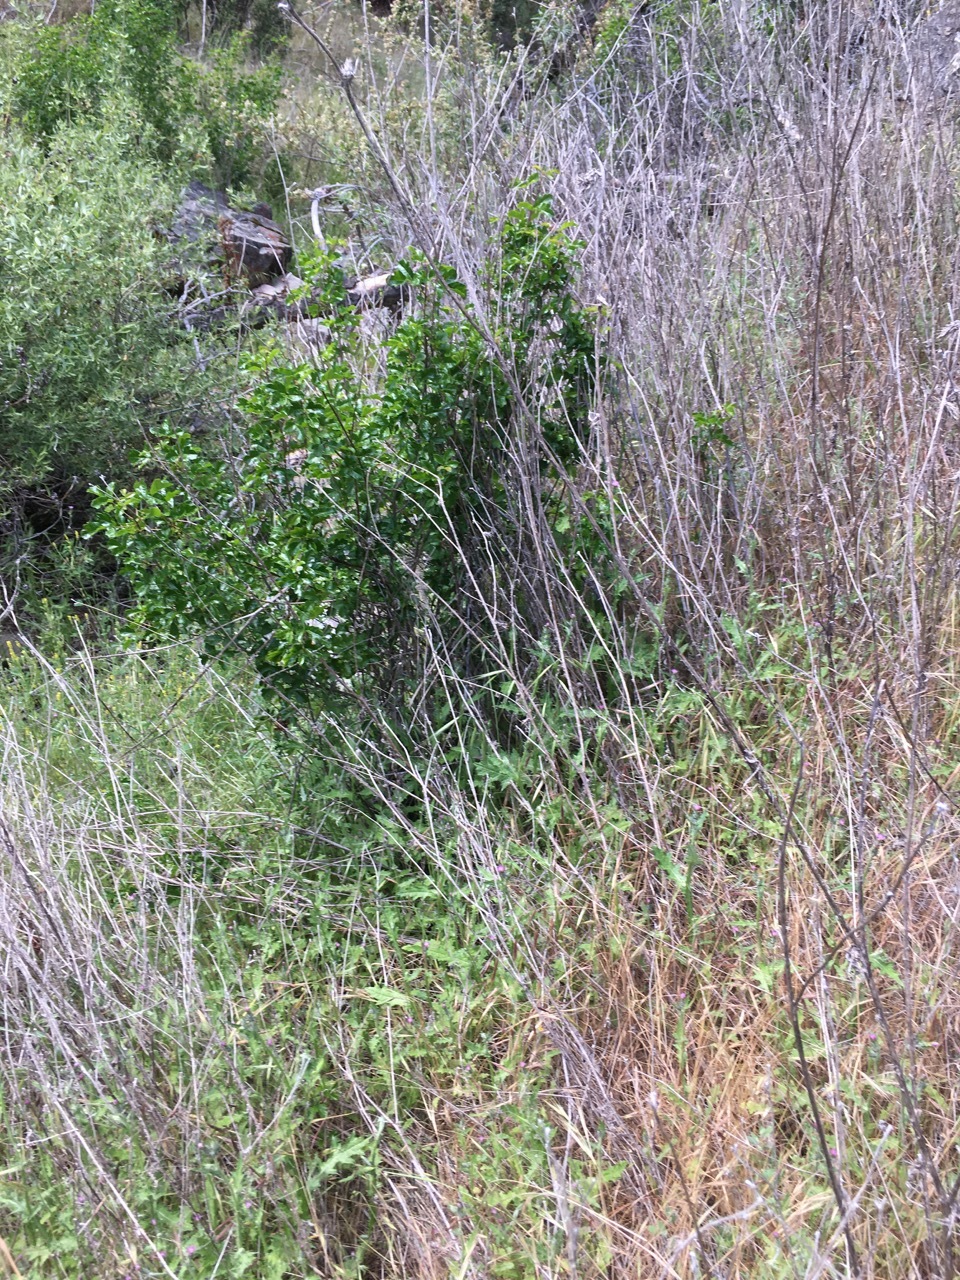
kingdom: Plantae
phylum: Tracheophyta
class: Magnoliopsida
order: Asterales
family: Asteraceae
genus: Carduus
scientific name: Carduus pycnocephalus
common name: Plymouth thistle
